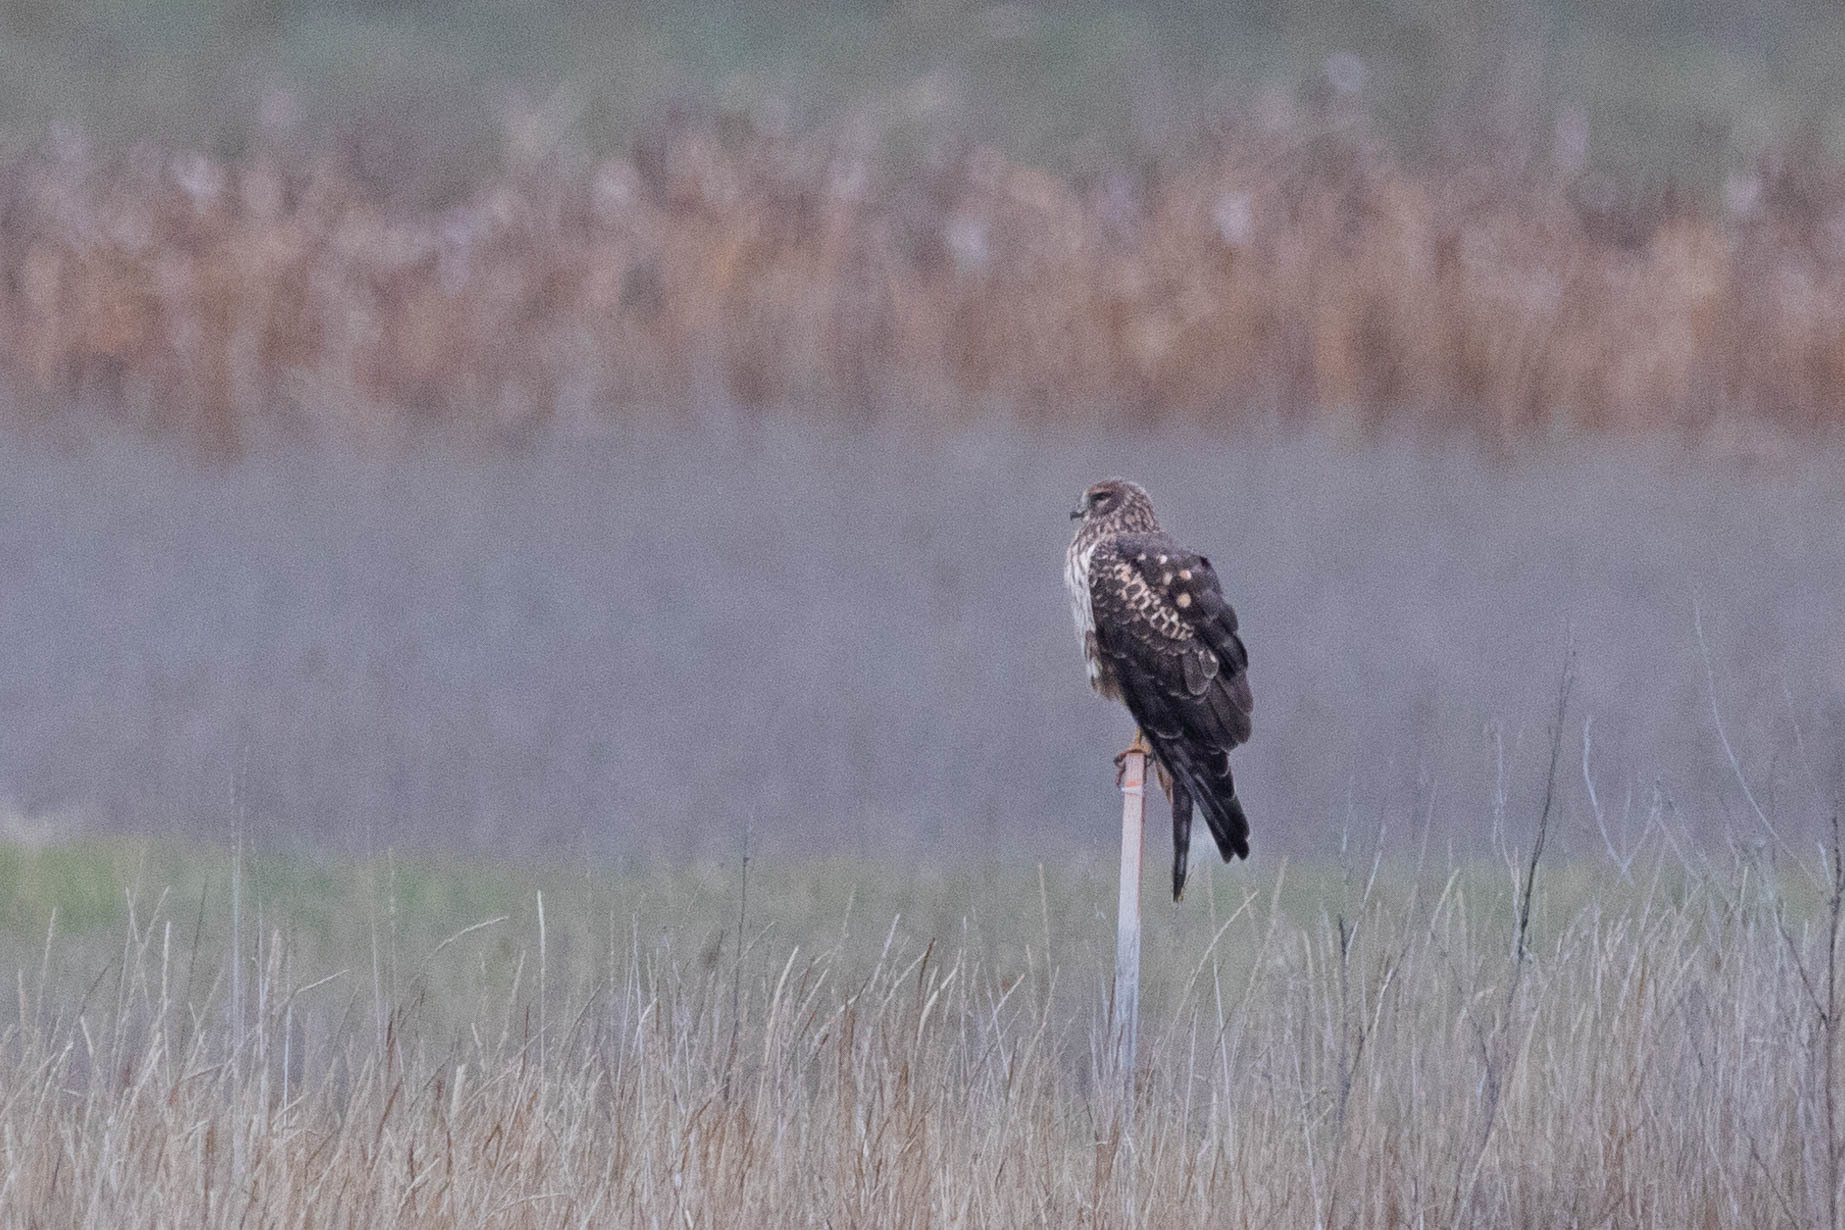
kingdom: Animalia
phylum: Chordata
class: Aves
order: Accipitriformes
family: Accipitridae
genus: Circus
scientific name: Circus cyaneus
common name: Hen harrier
